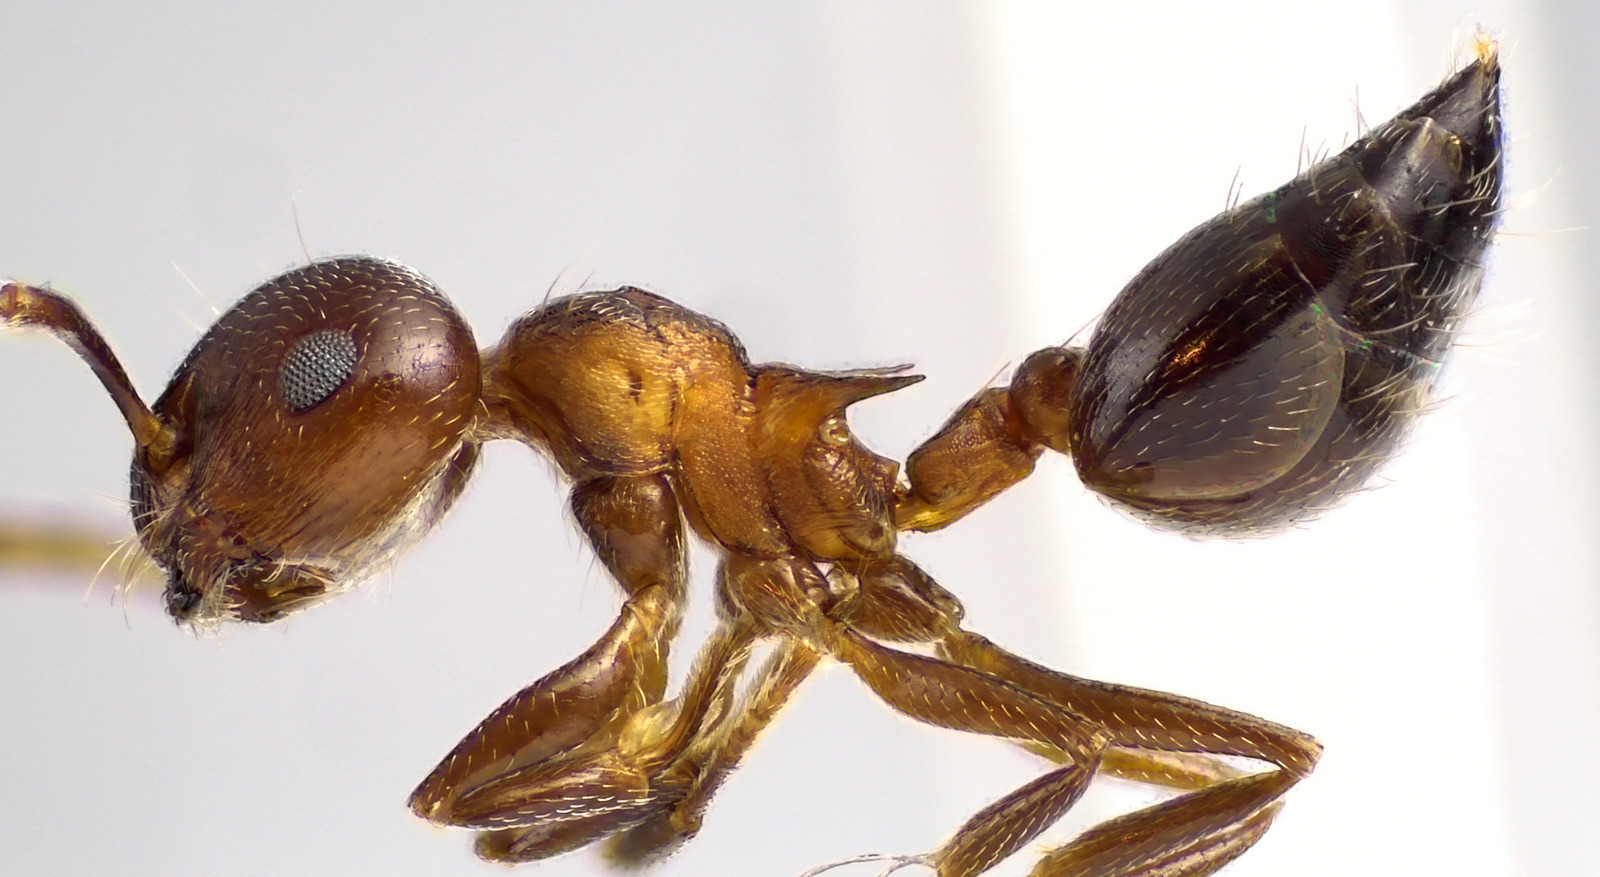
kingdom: Animalia
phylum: Arthropoda
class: Insecta
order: Hymenoptera
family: Formicidae
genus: Crematogaster
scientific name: Crematogaster cerasi
